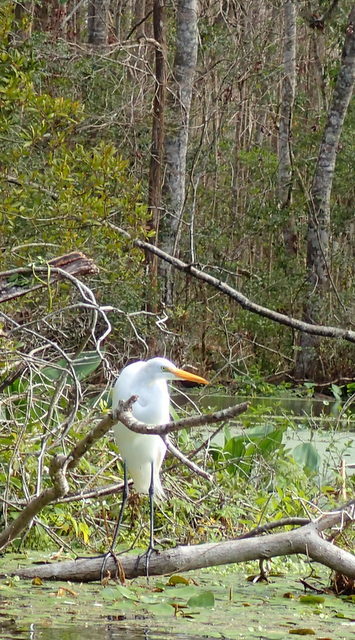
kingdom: Animalia
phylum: Chordata
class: Aves
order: Pelecaniformes
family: Ardeidae
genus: Ardea
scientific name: Ardea alba
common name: Great egret
